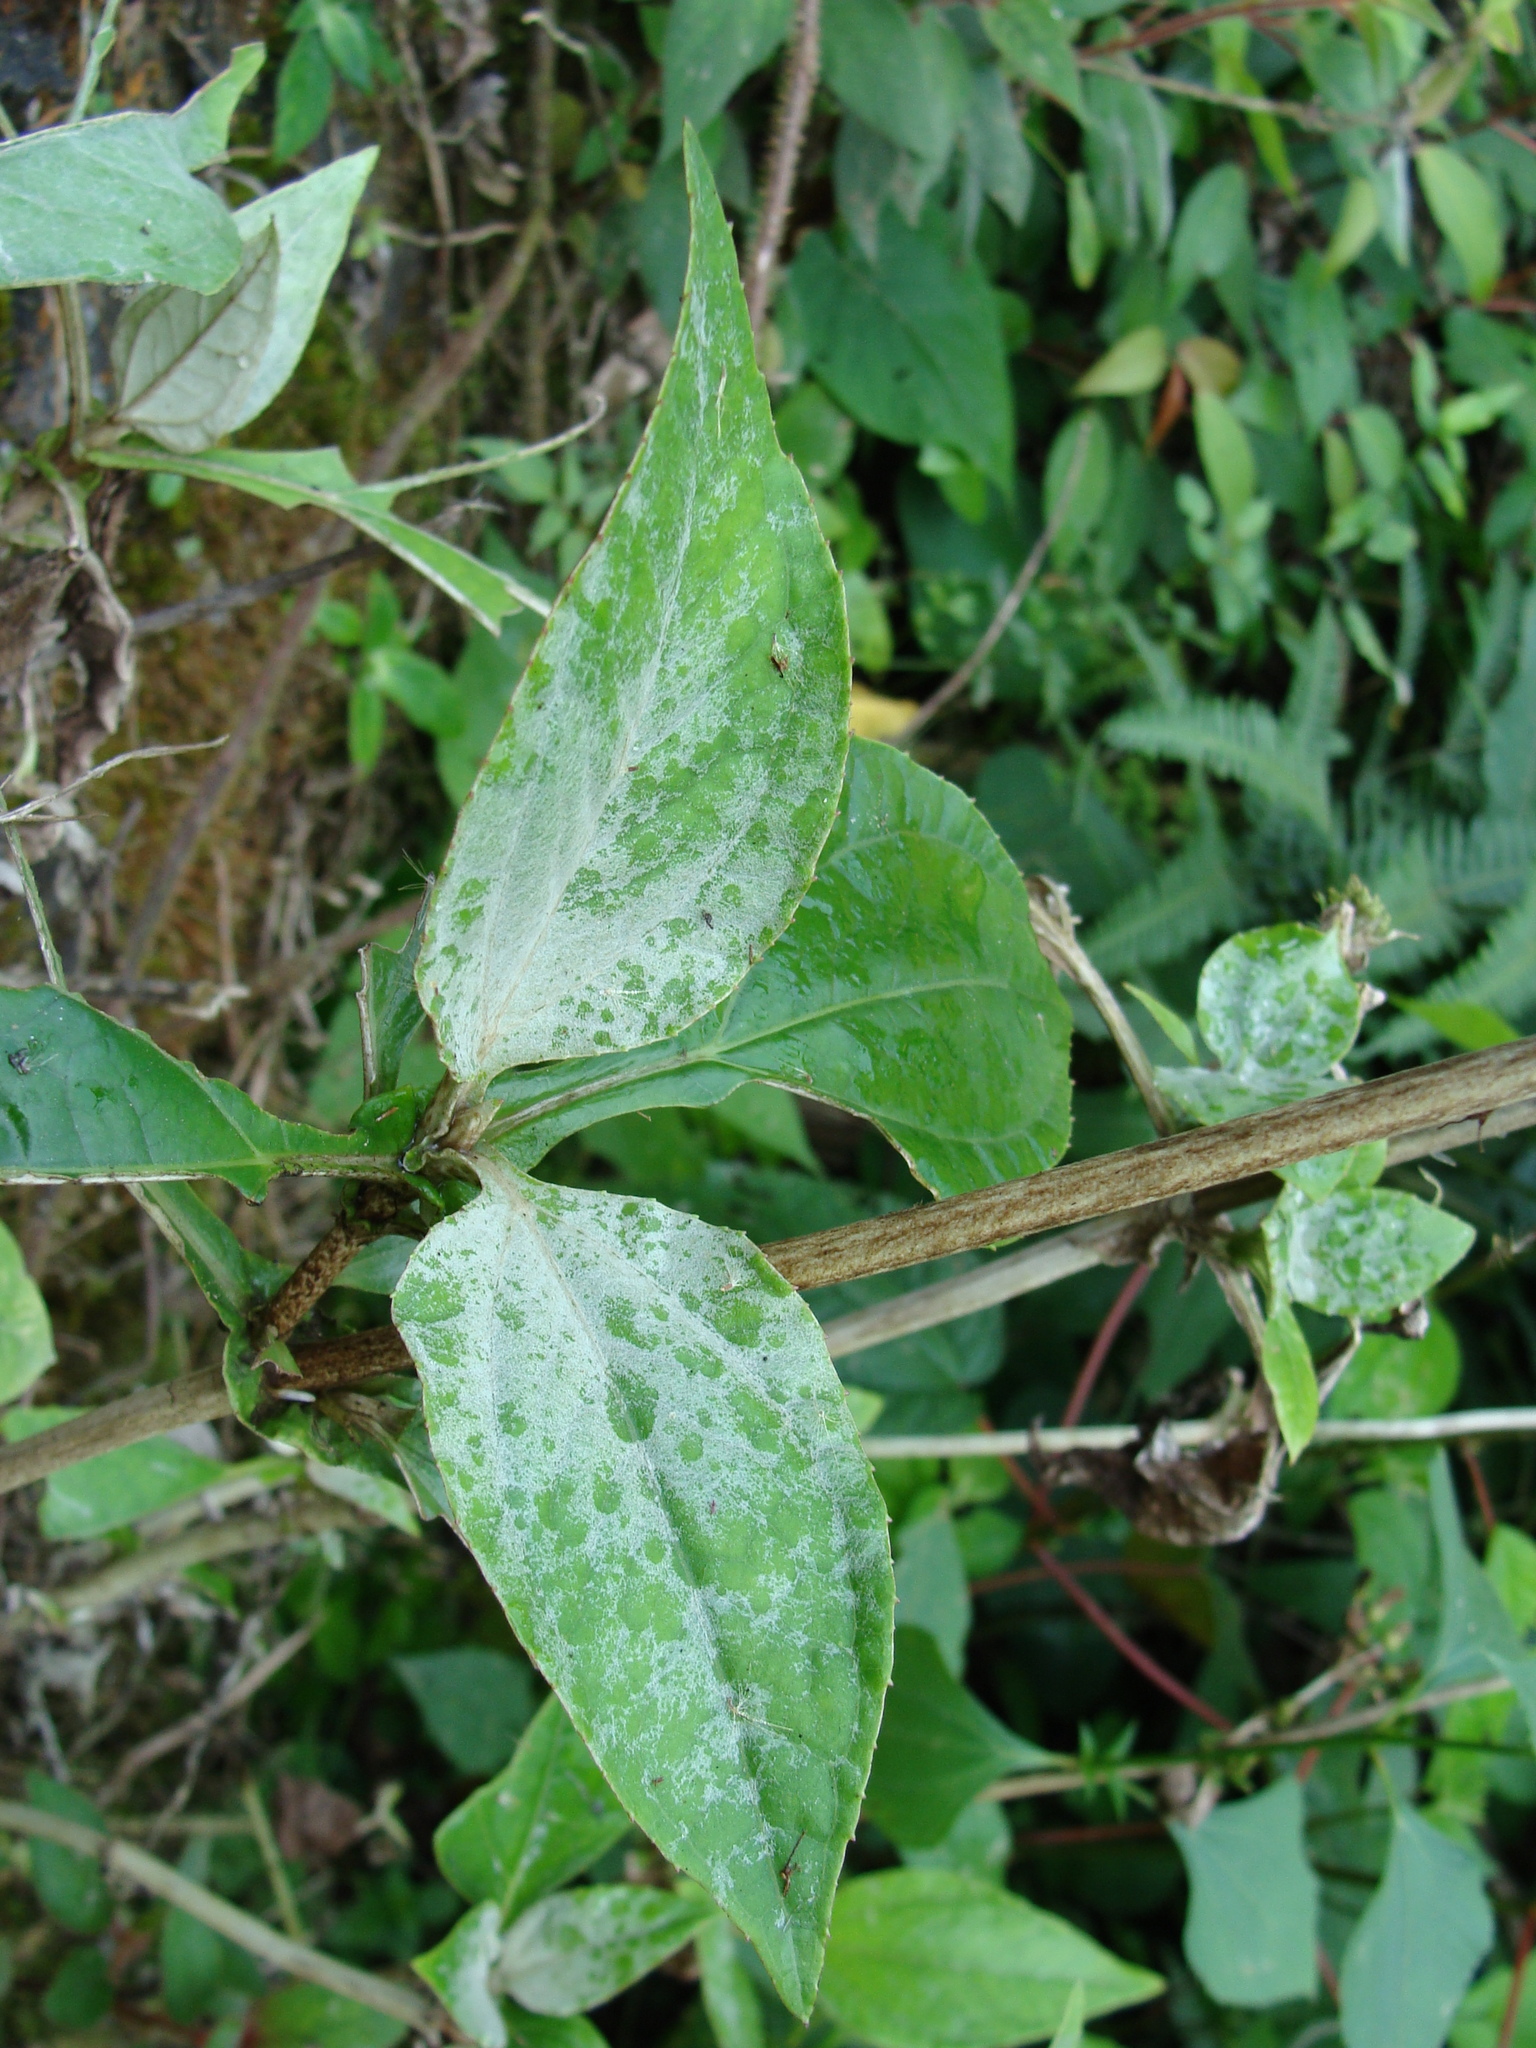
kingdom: Plantae
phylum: Tracheophyta
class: Magnoliopsida
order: Asterales
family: Asteraceae
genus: Liabum
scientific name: Liabum asclepiadeum
